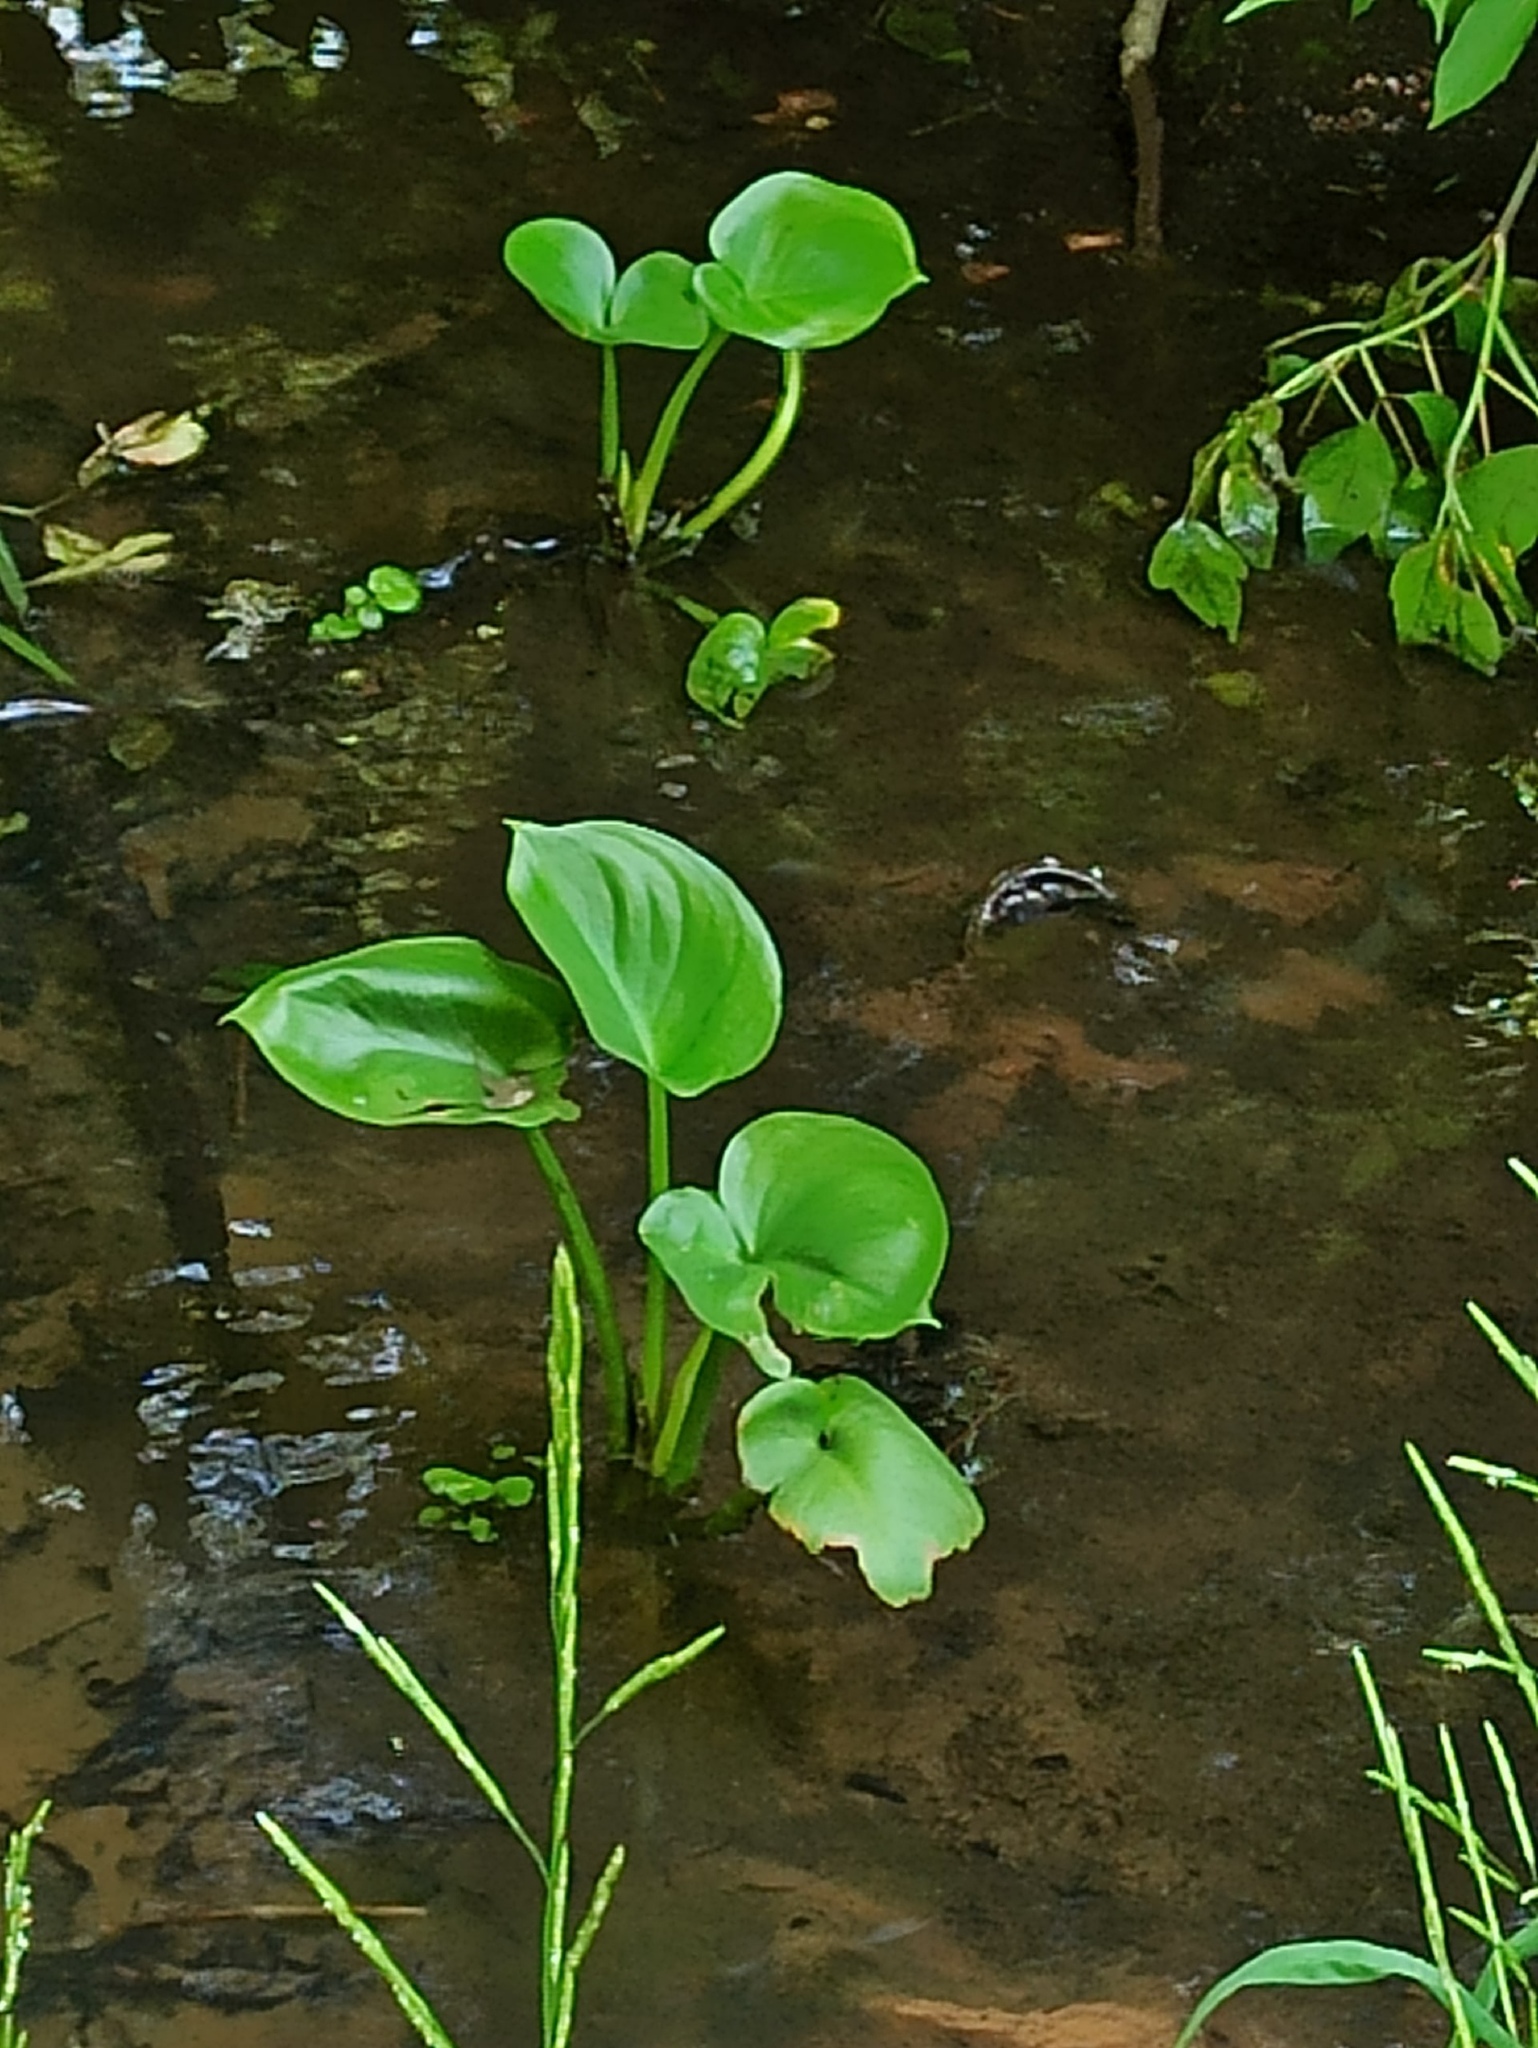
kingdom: Plantae
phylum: Tracheophyta
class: Liliopsida
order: Alismatales
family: Araceae
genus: Calla
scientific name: Calla palustris
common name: Bog arum
